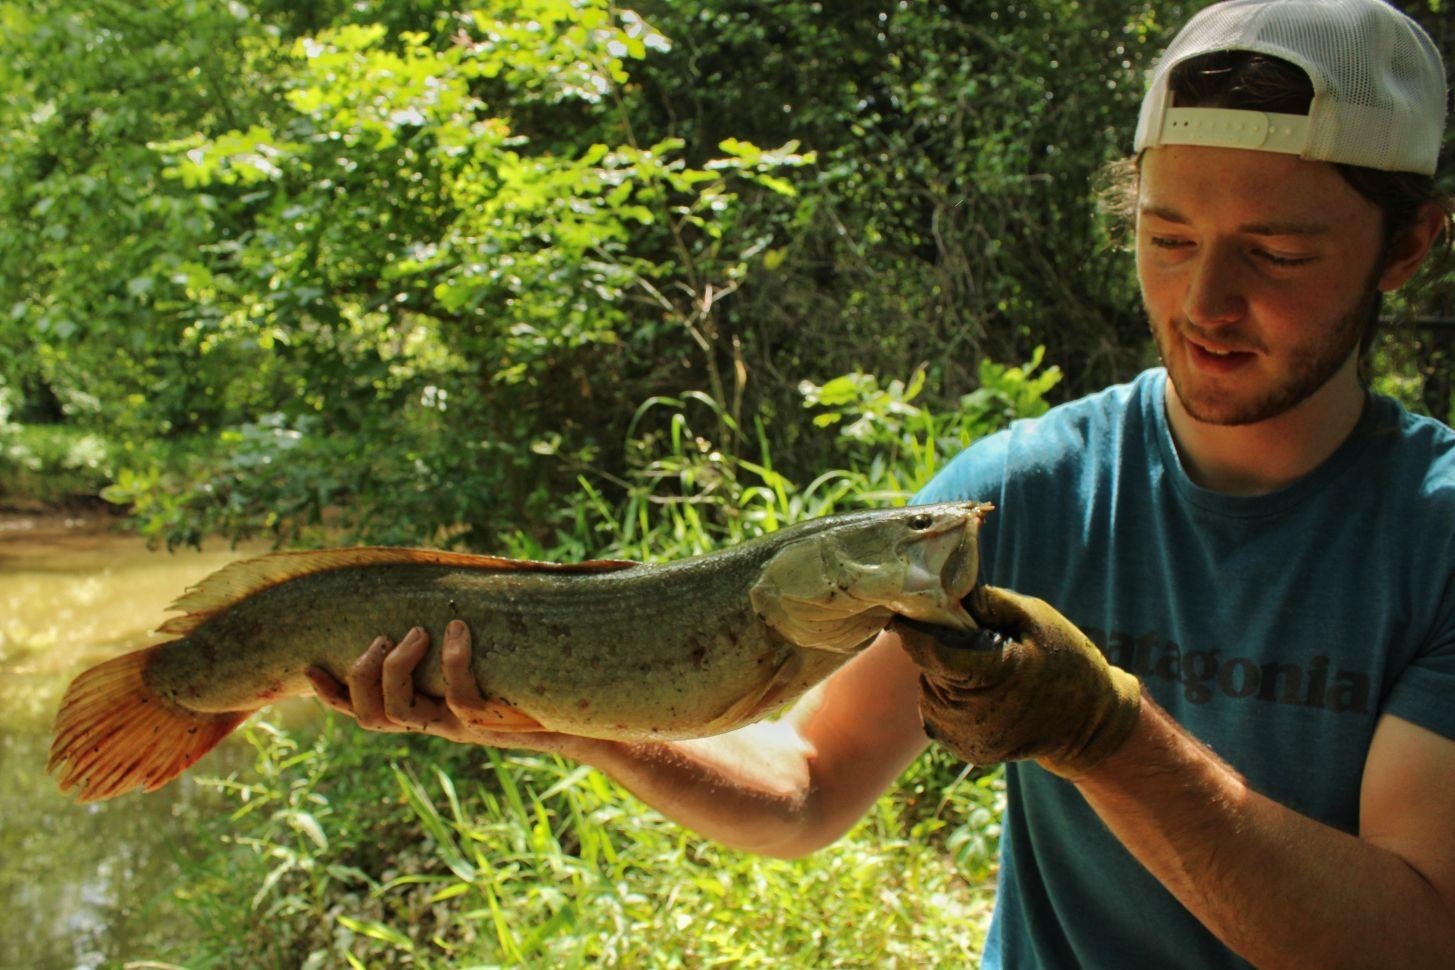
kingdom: Animalia
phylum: Chordata
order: Amiiformes
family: Amiidae
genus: Amia
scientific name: Amia calva
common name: Bowfin
